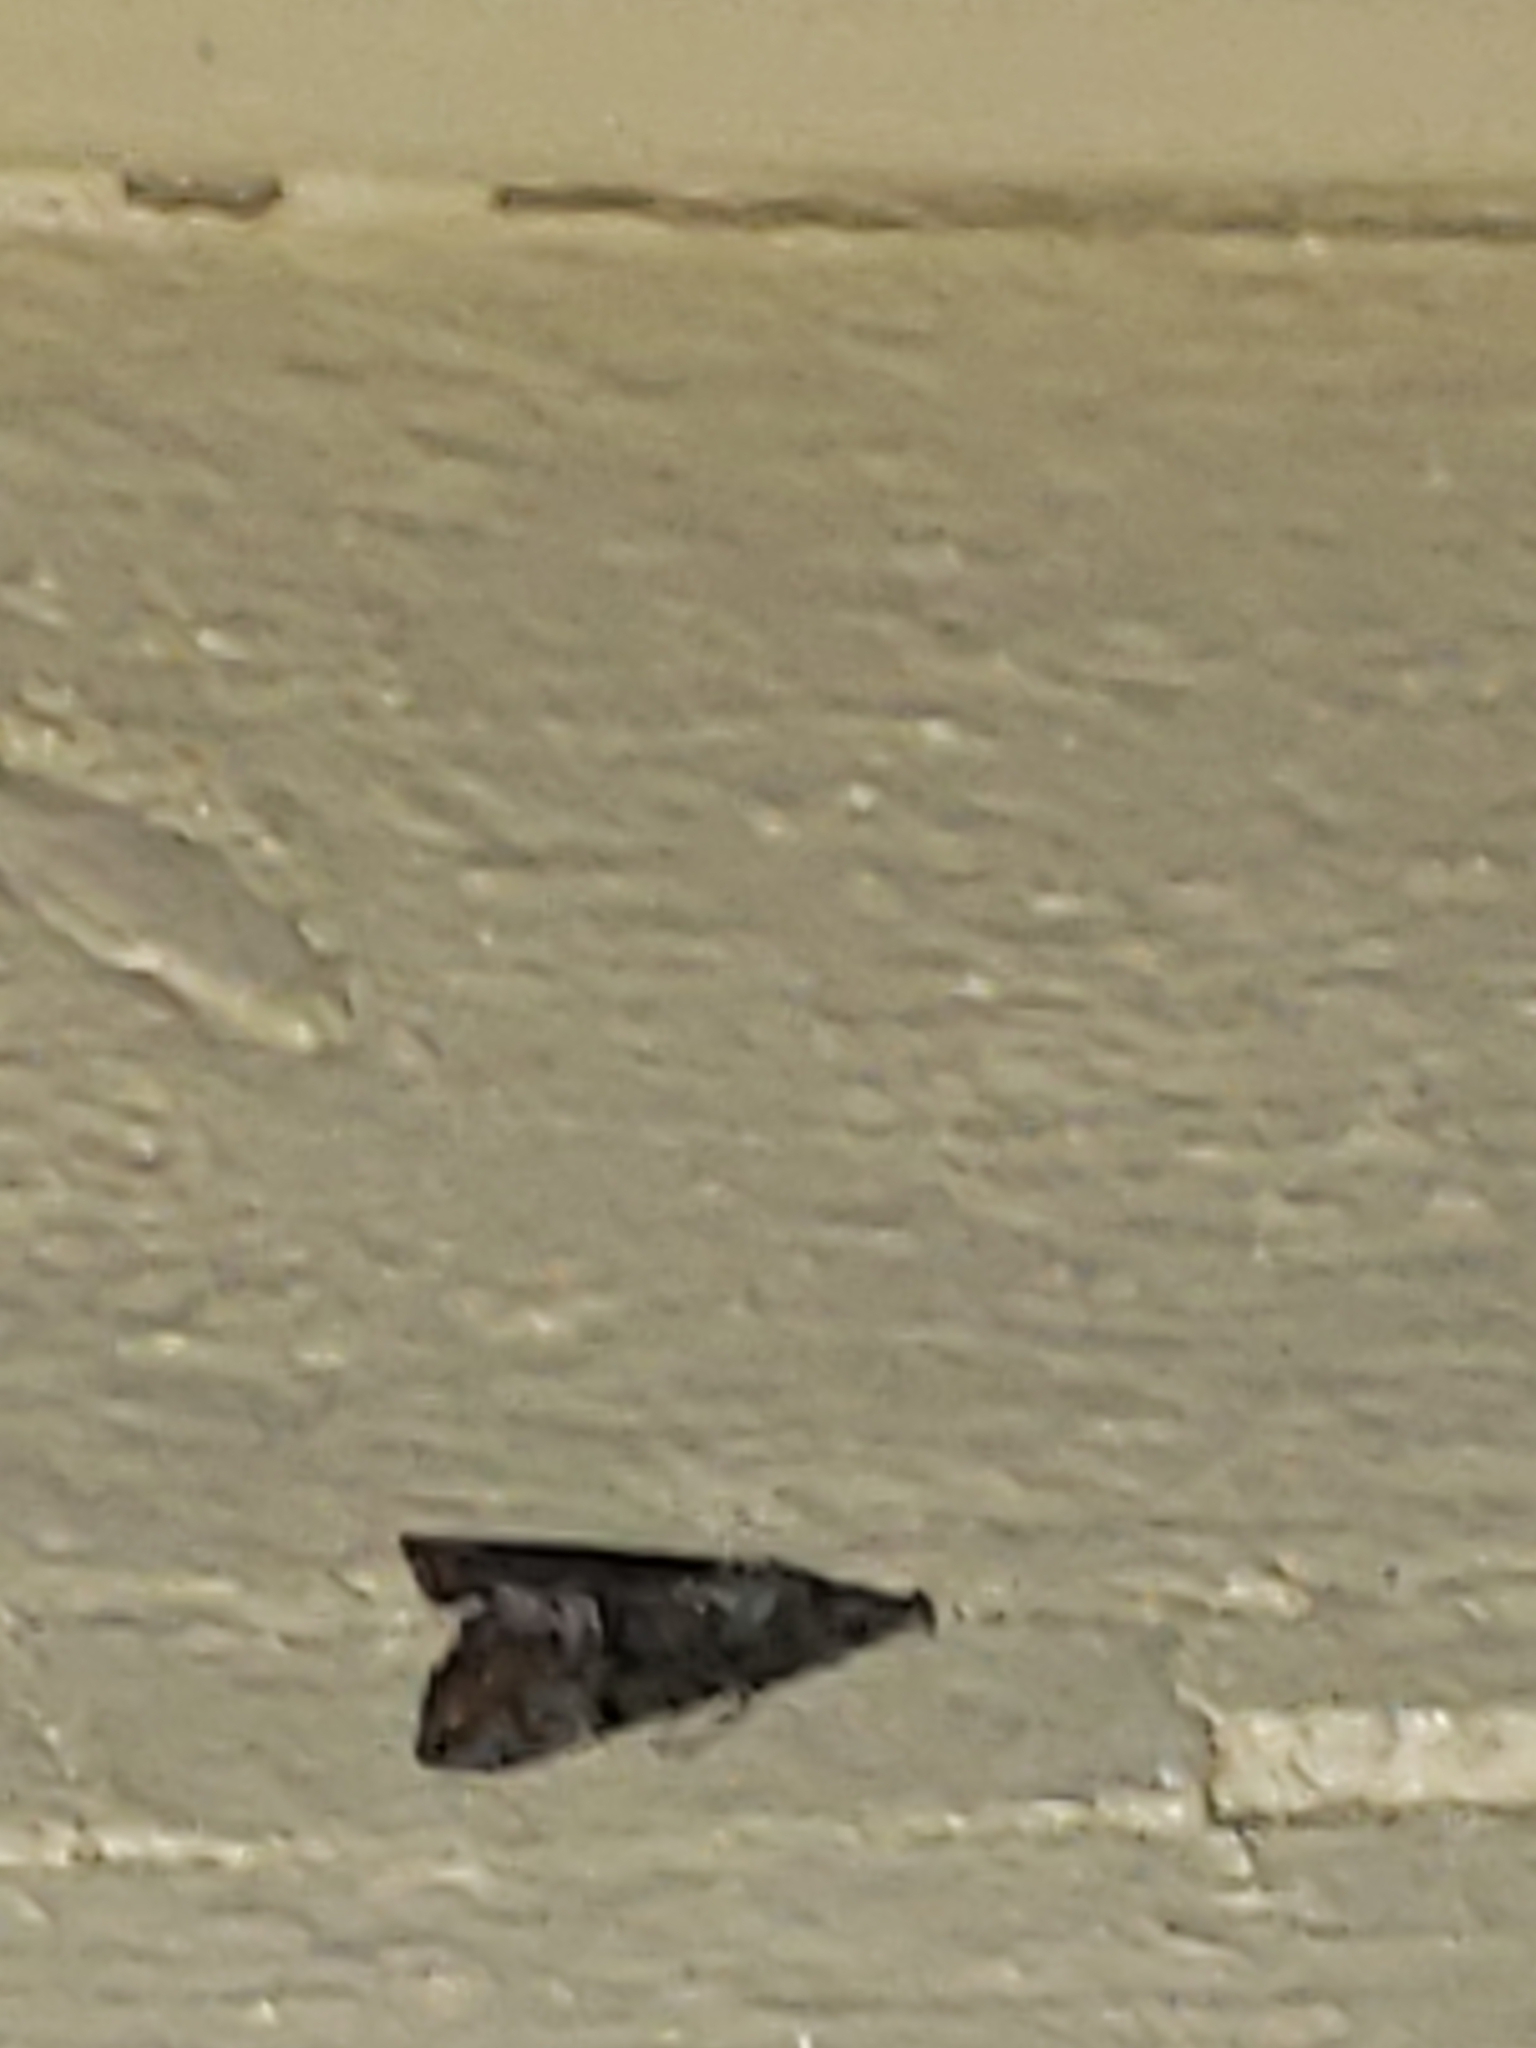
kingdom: Animalia
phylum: Arthropoda
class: Insecta
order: Lepidoptera
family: Erebidae
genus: Hypena
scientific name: Hypena scabra
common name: Green cloverworm
